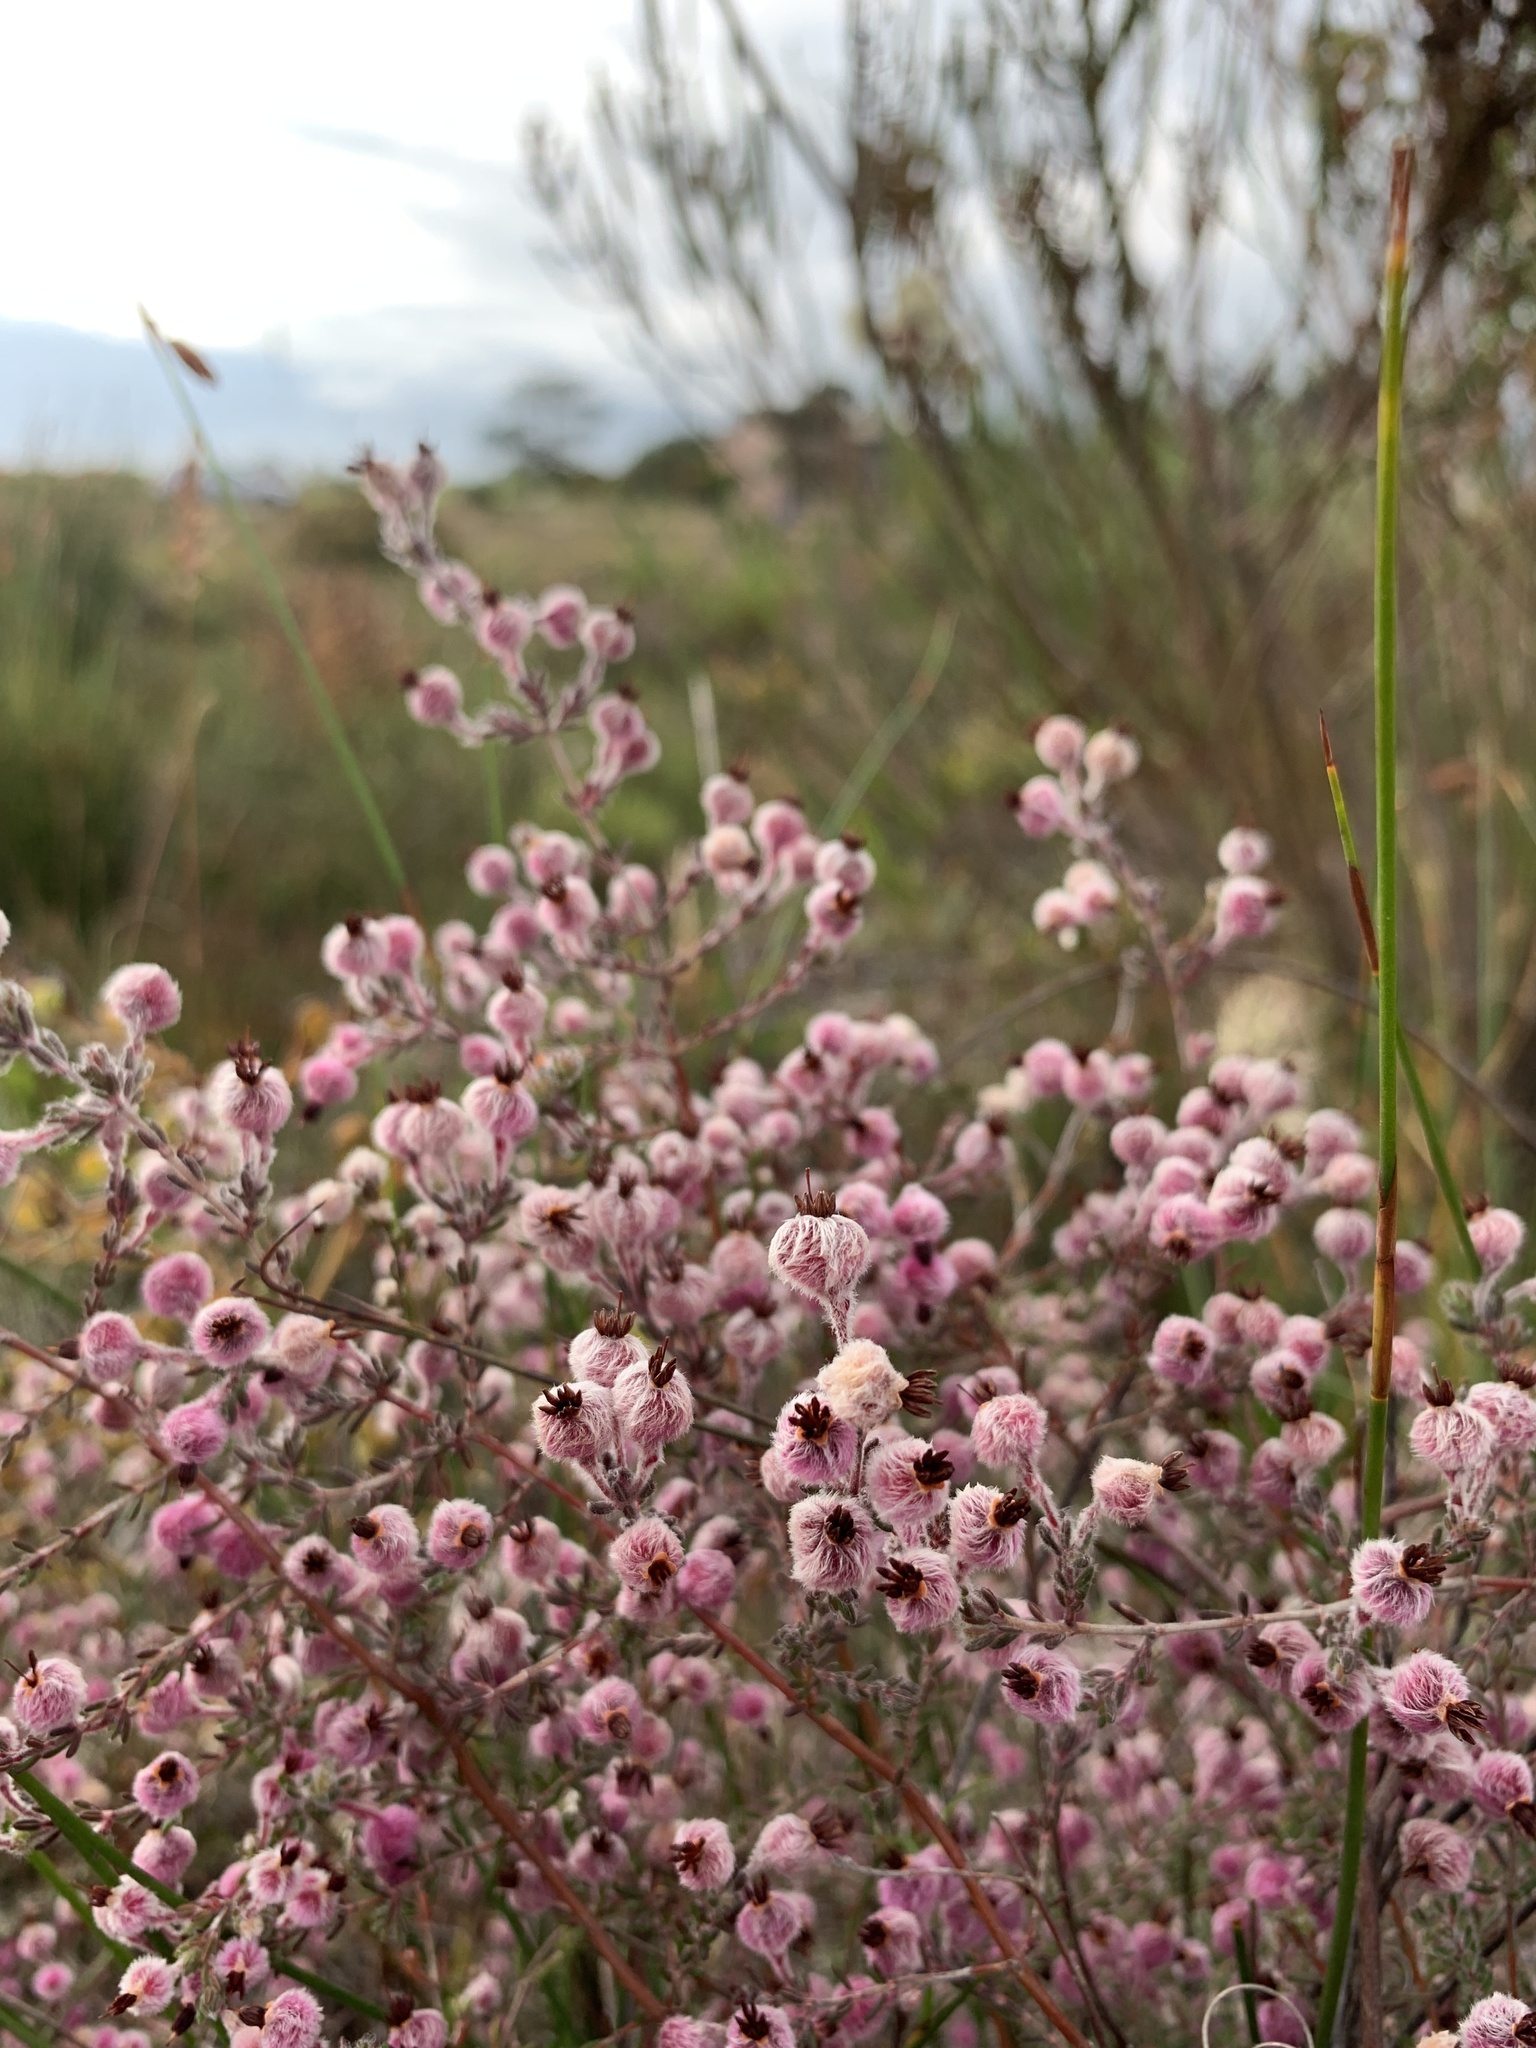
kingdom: Plantae
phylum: Tracheophyta
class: Magnoliopsida
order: Ericales
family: Ericaceae
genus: Erica
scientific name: Erica bruniades
